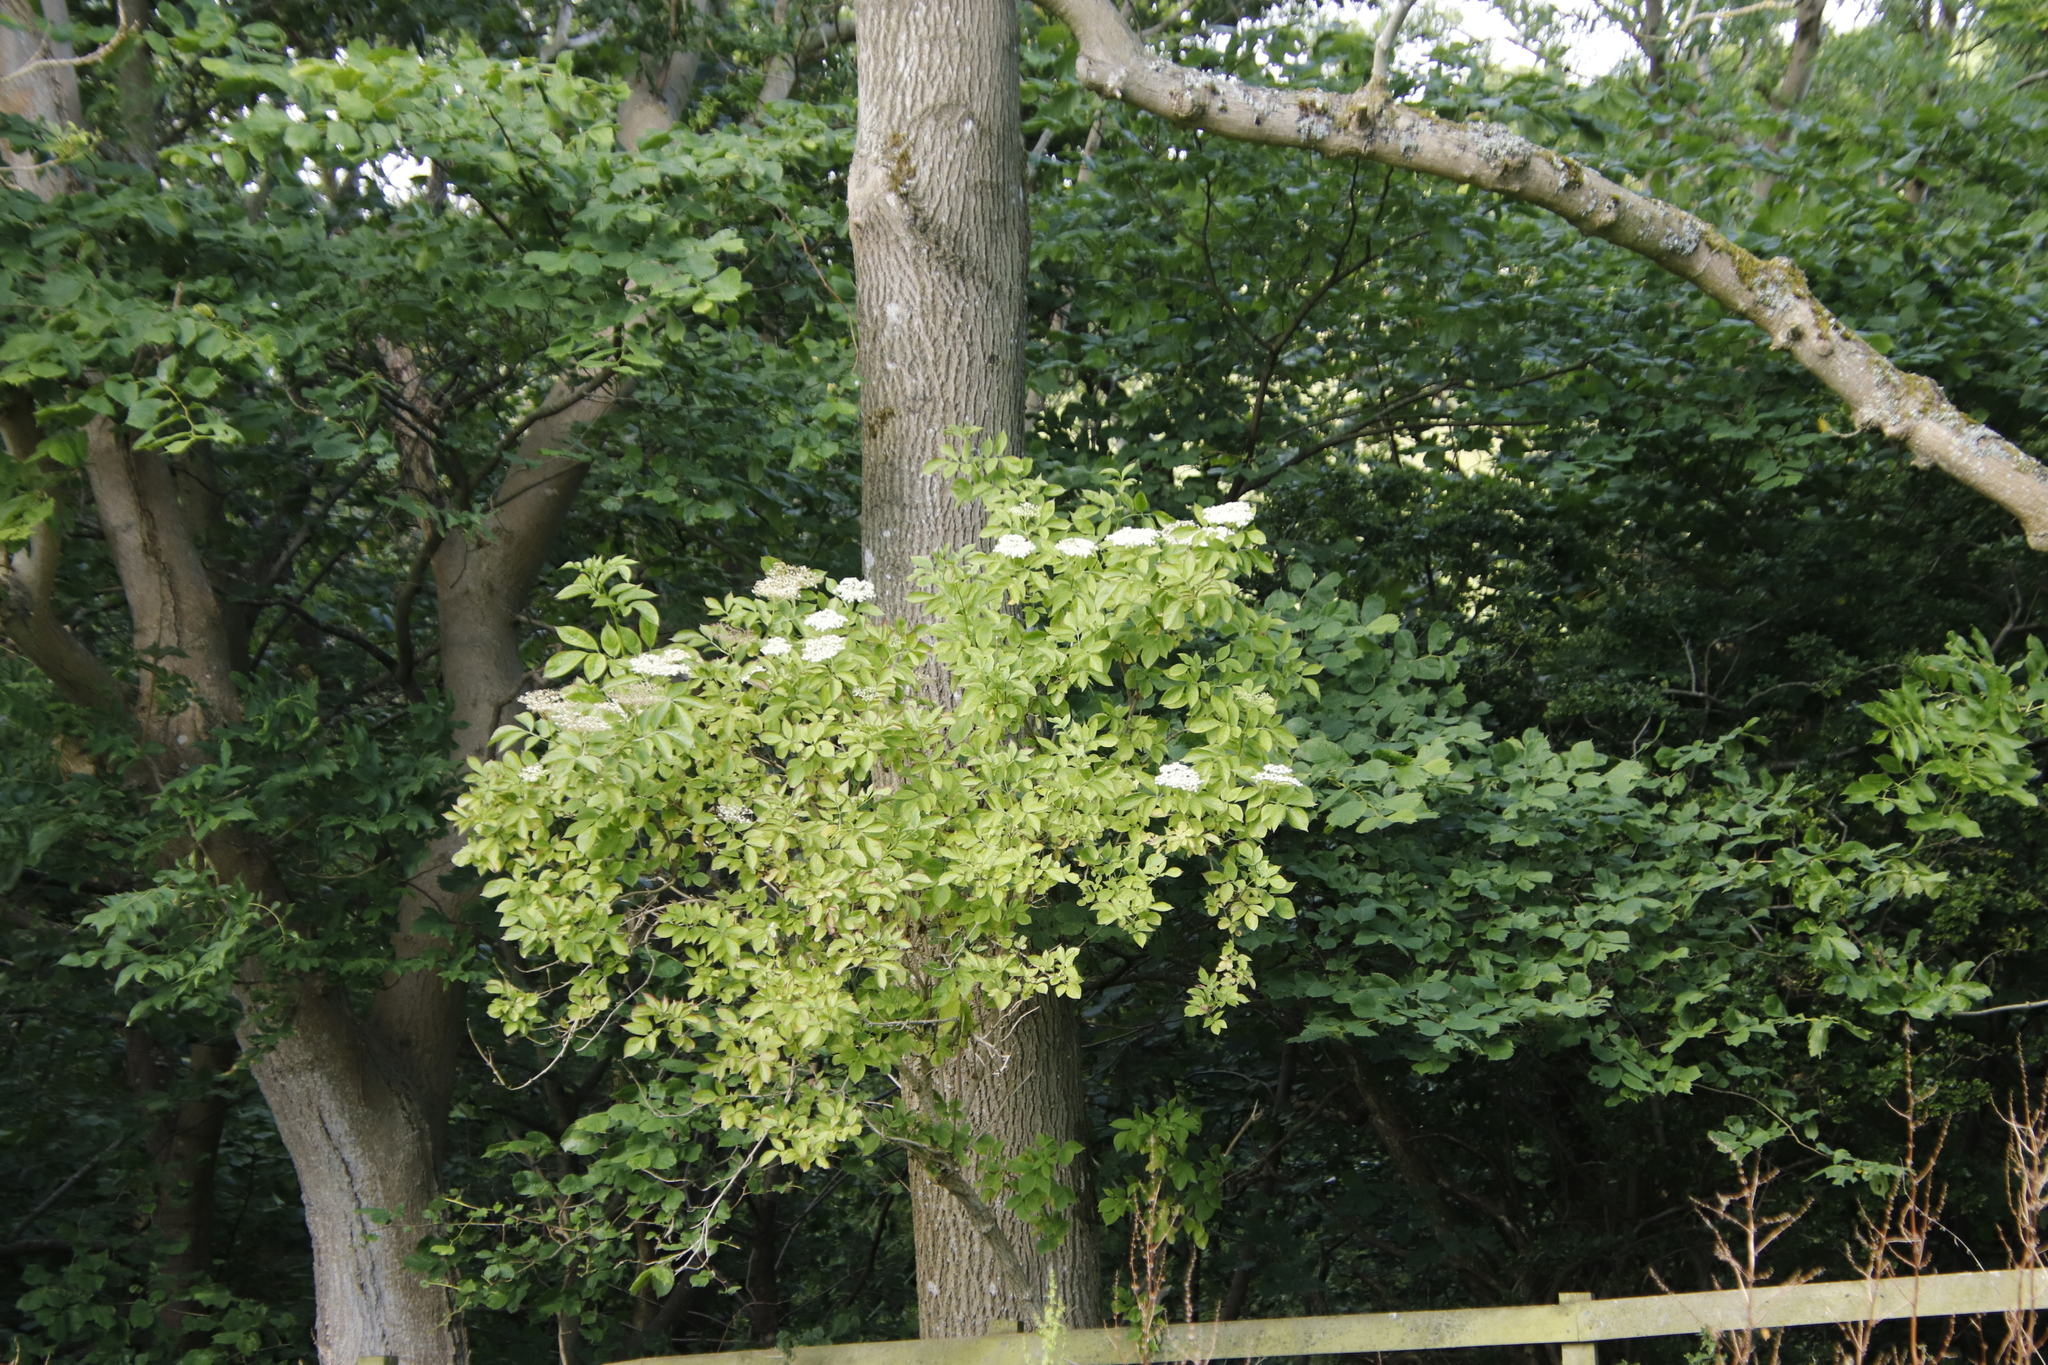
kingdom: Plantae
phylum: Tracheophyta
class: Magnoliopsida
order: Dipsacales
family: Viburnaceae
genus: Sambucus
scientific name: Sambucus nigra
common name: Elder
